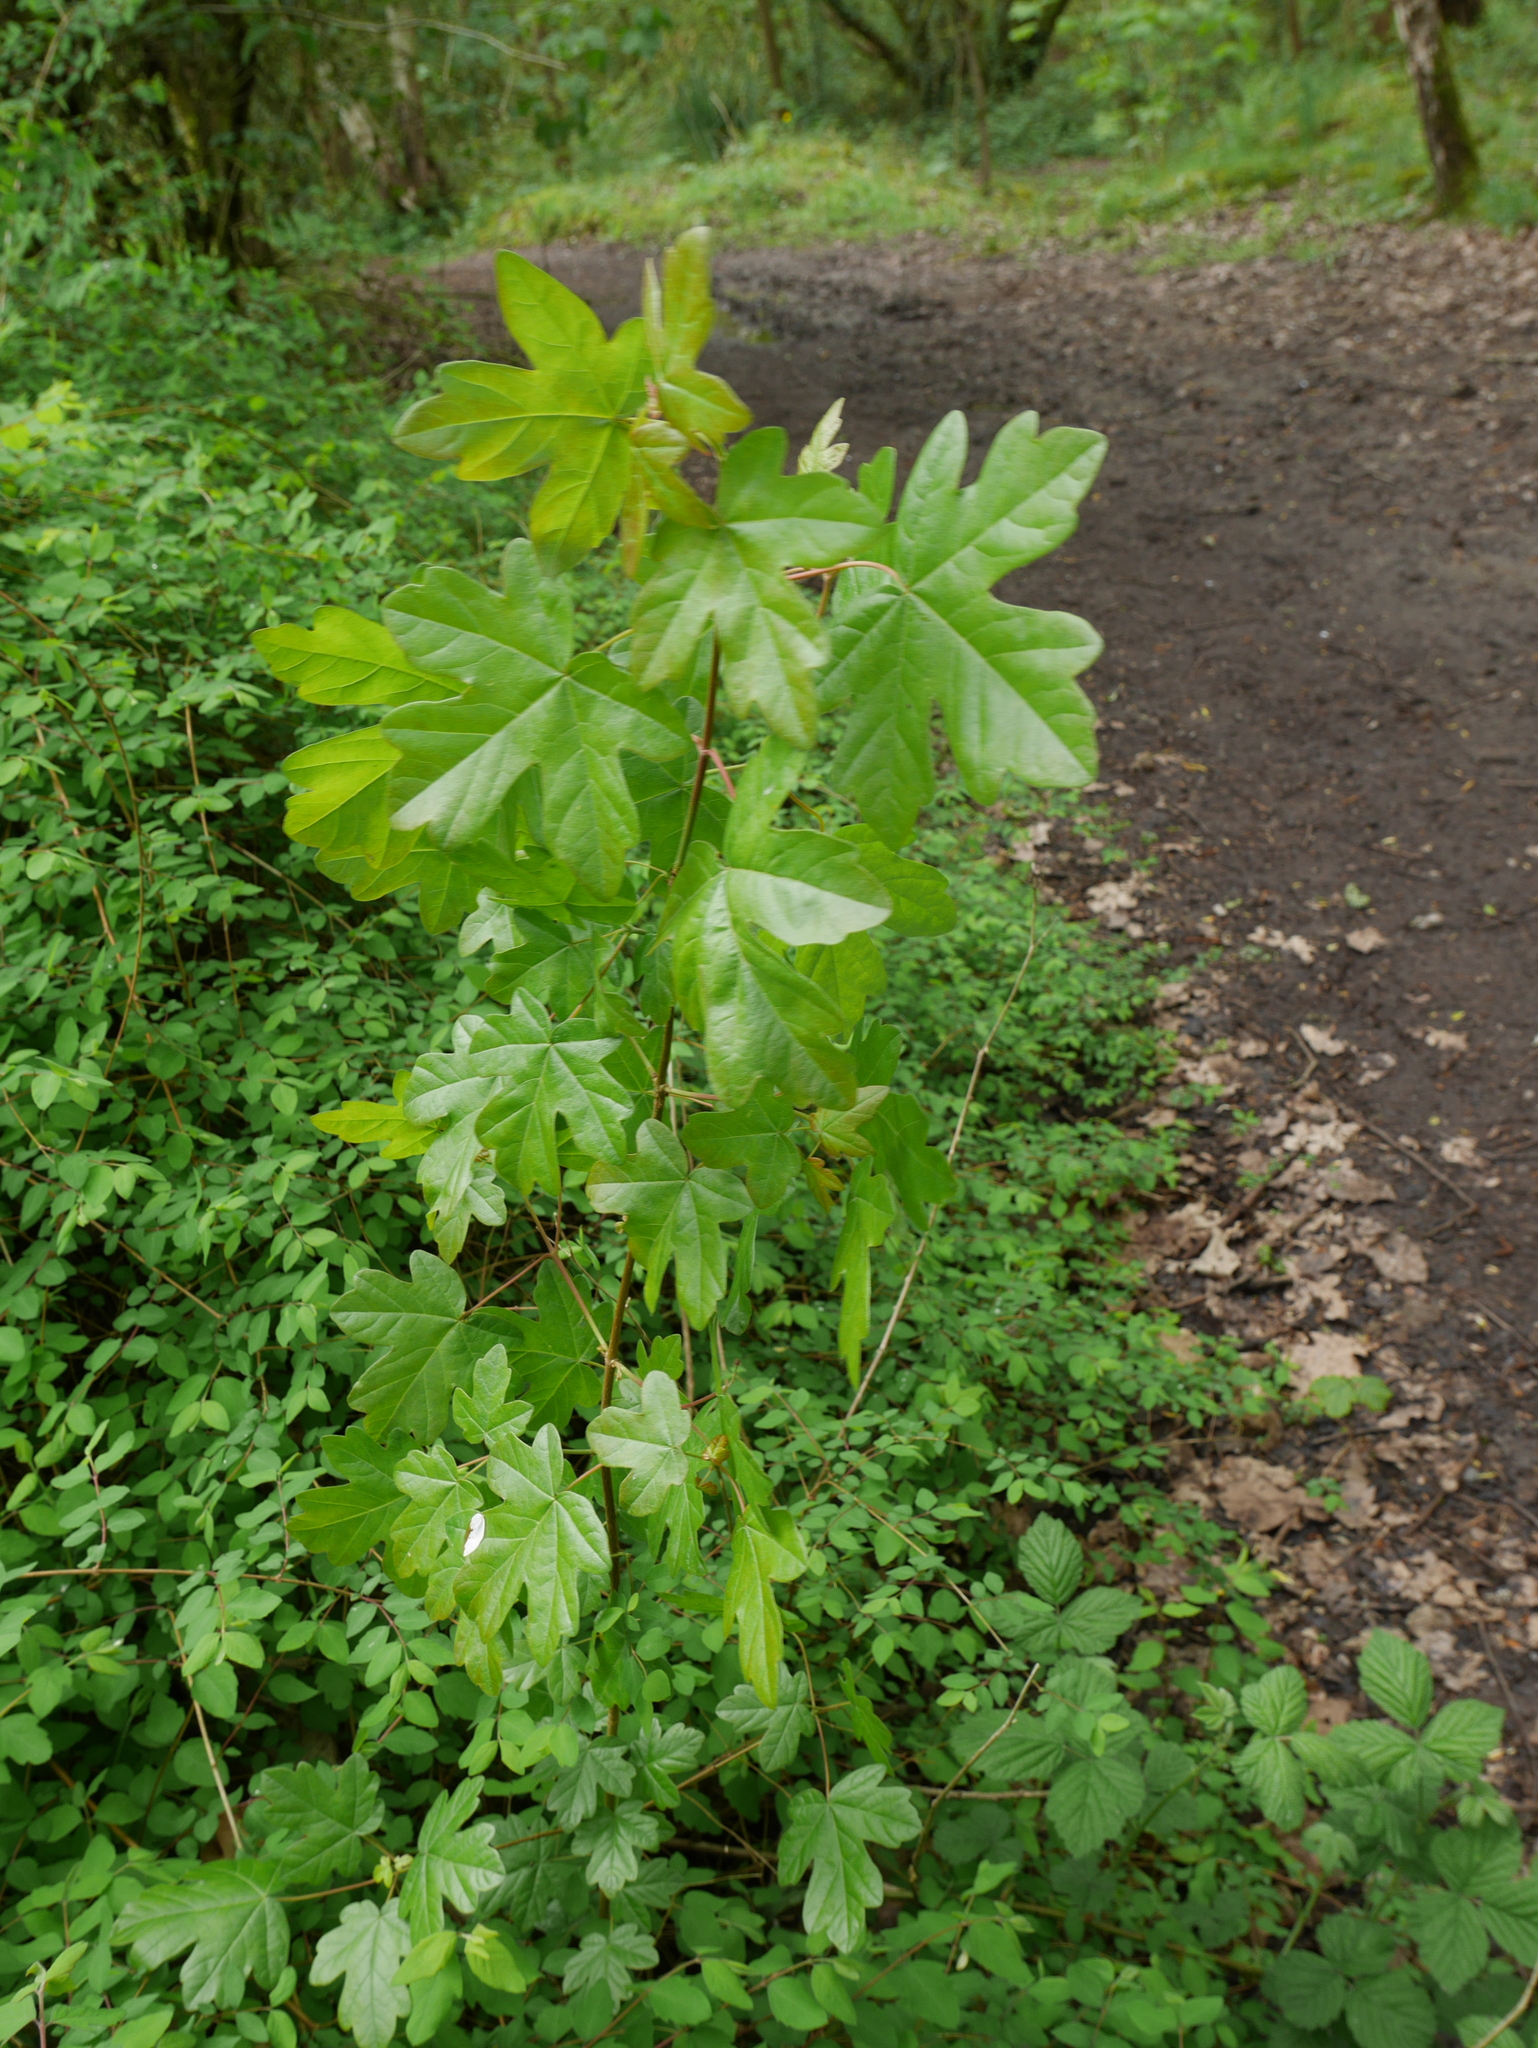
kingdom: Plantae
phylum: Tracheophyta
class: Magnoliopsida
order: Sapindales
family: Sapindaceae
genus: Acer
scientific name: Acer campestre
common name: Field maple
